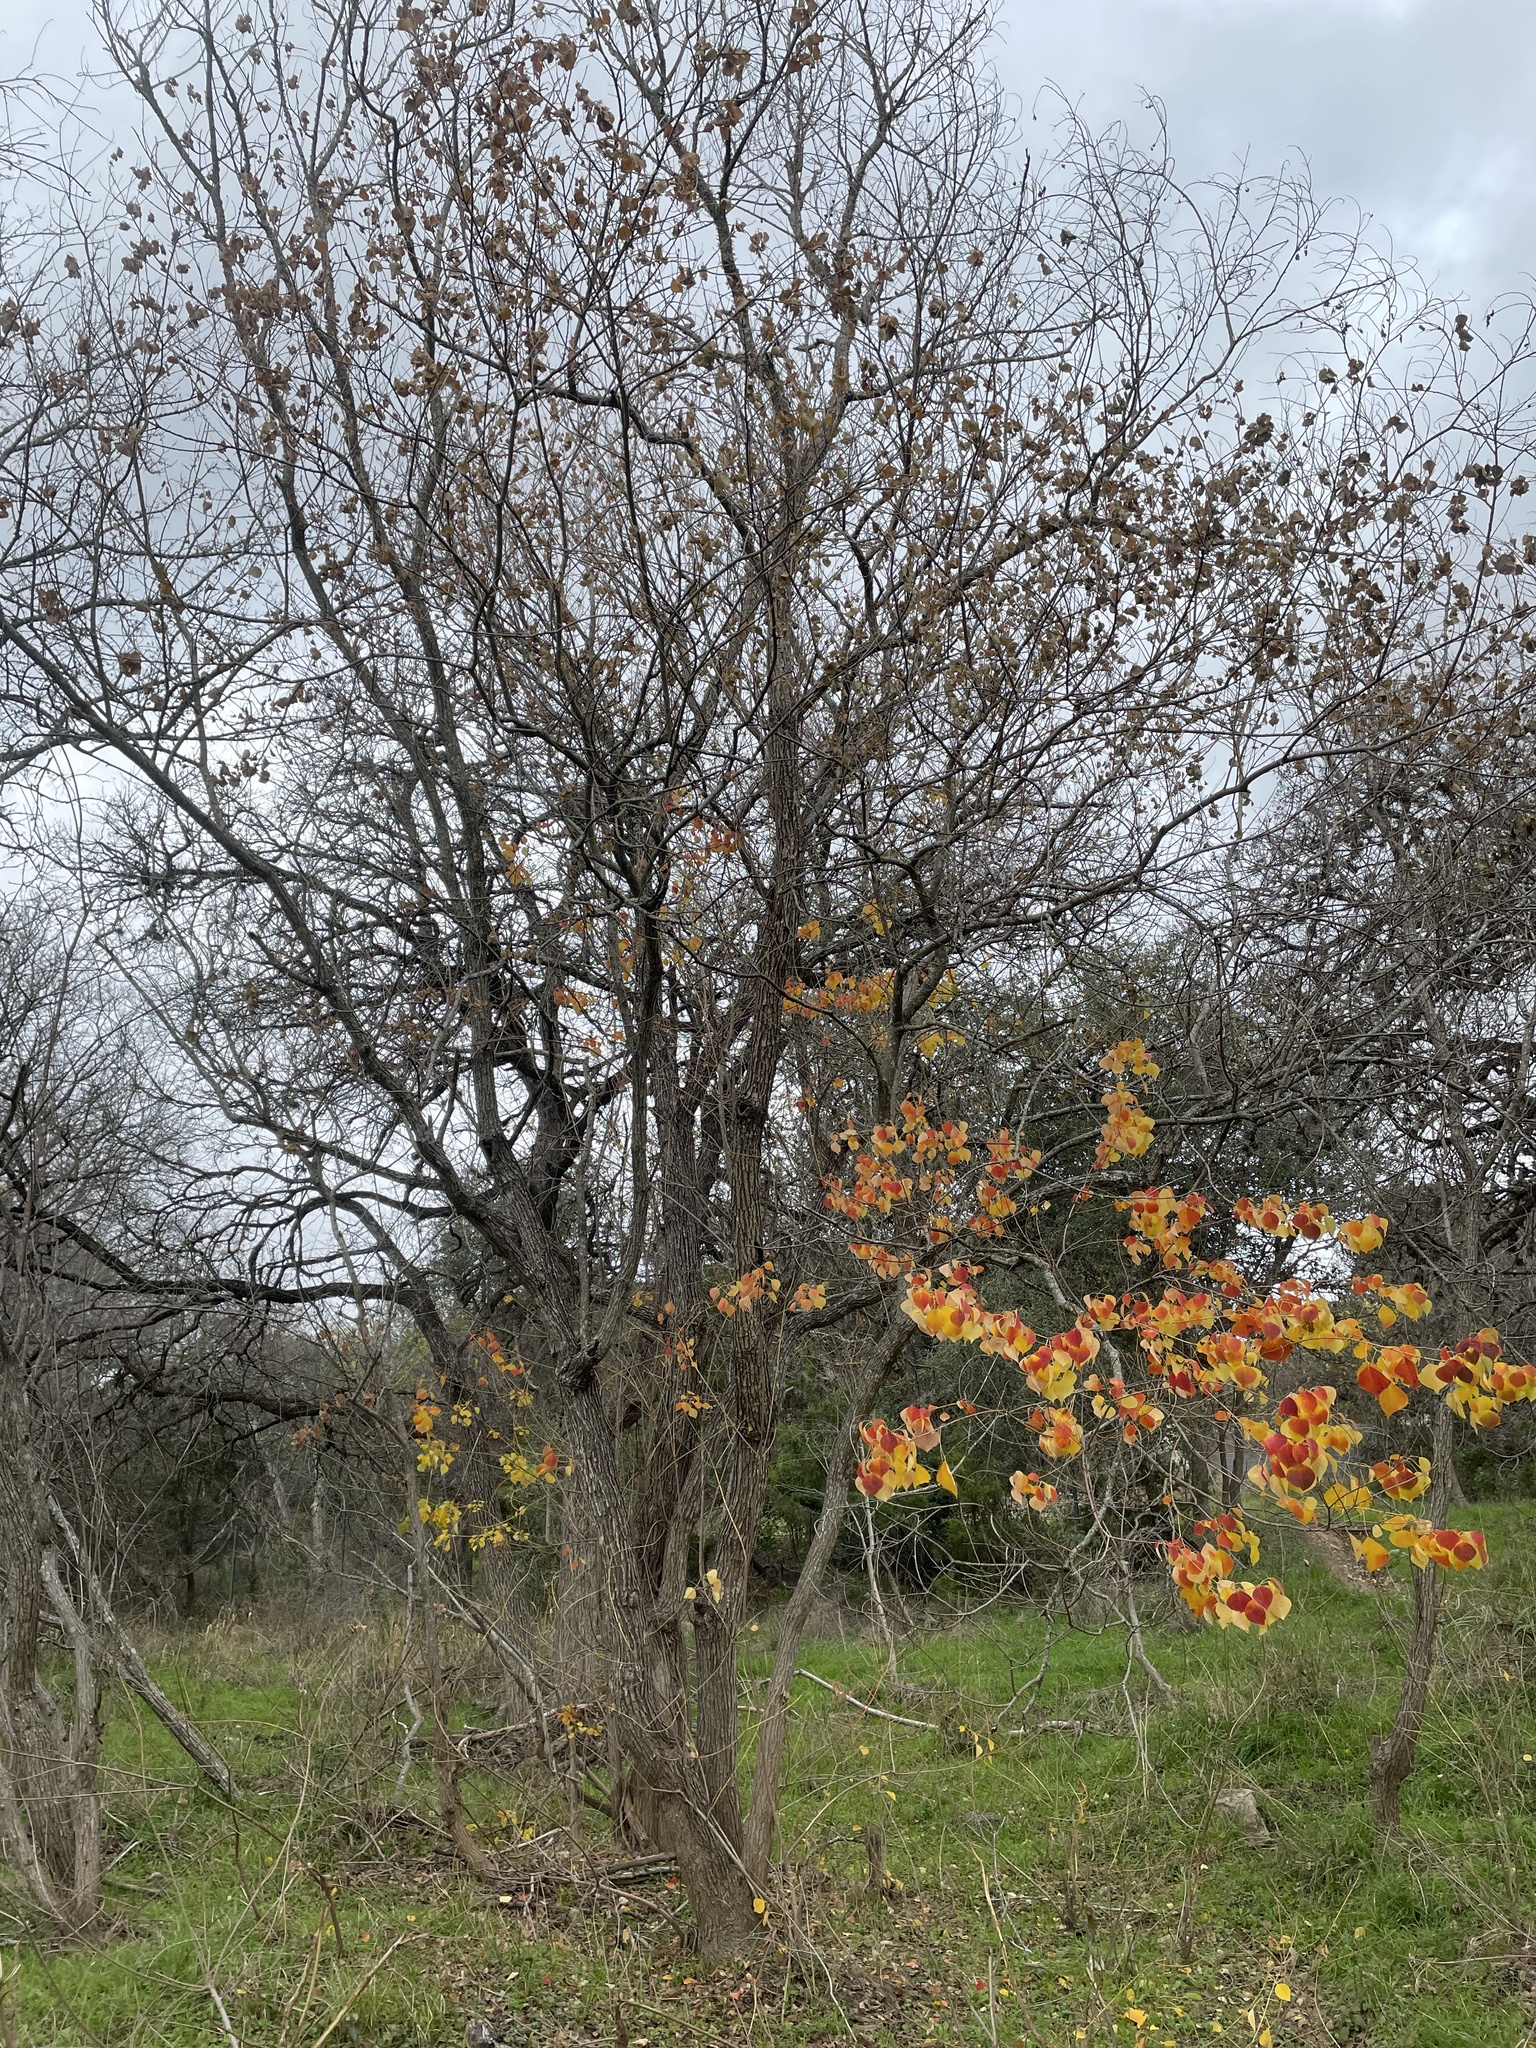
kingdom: Plantae
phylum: Tracheophyta
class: Magnoliopsida
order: Malpighiales
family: Euphorbiaceae
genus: Triadica
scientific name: Triadica sebifera
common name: Chinese tallow
